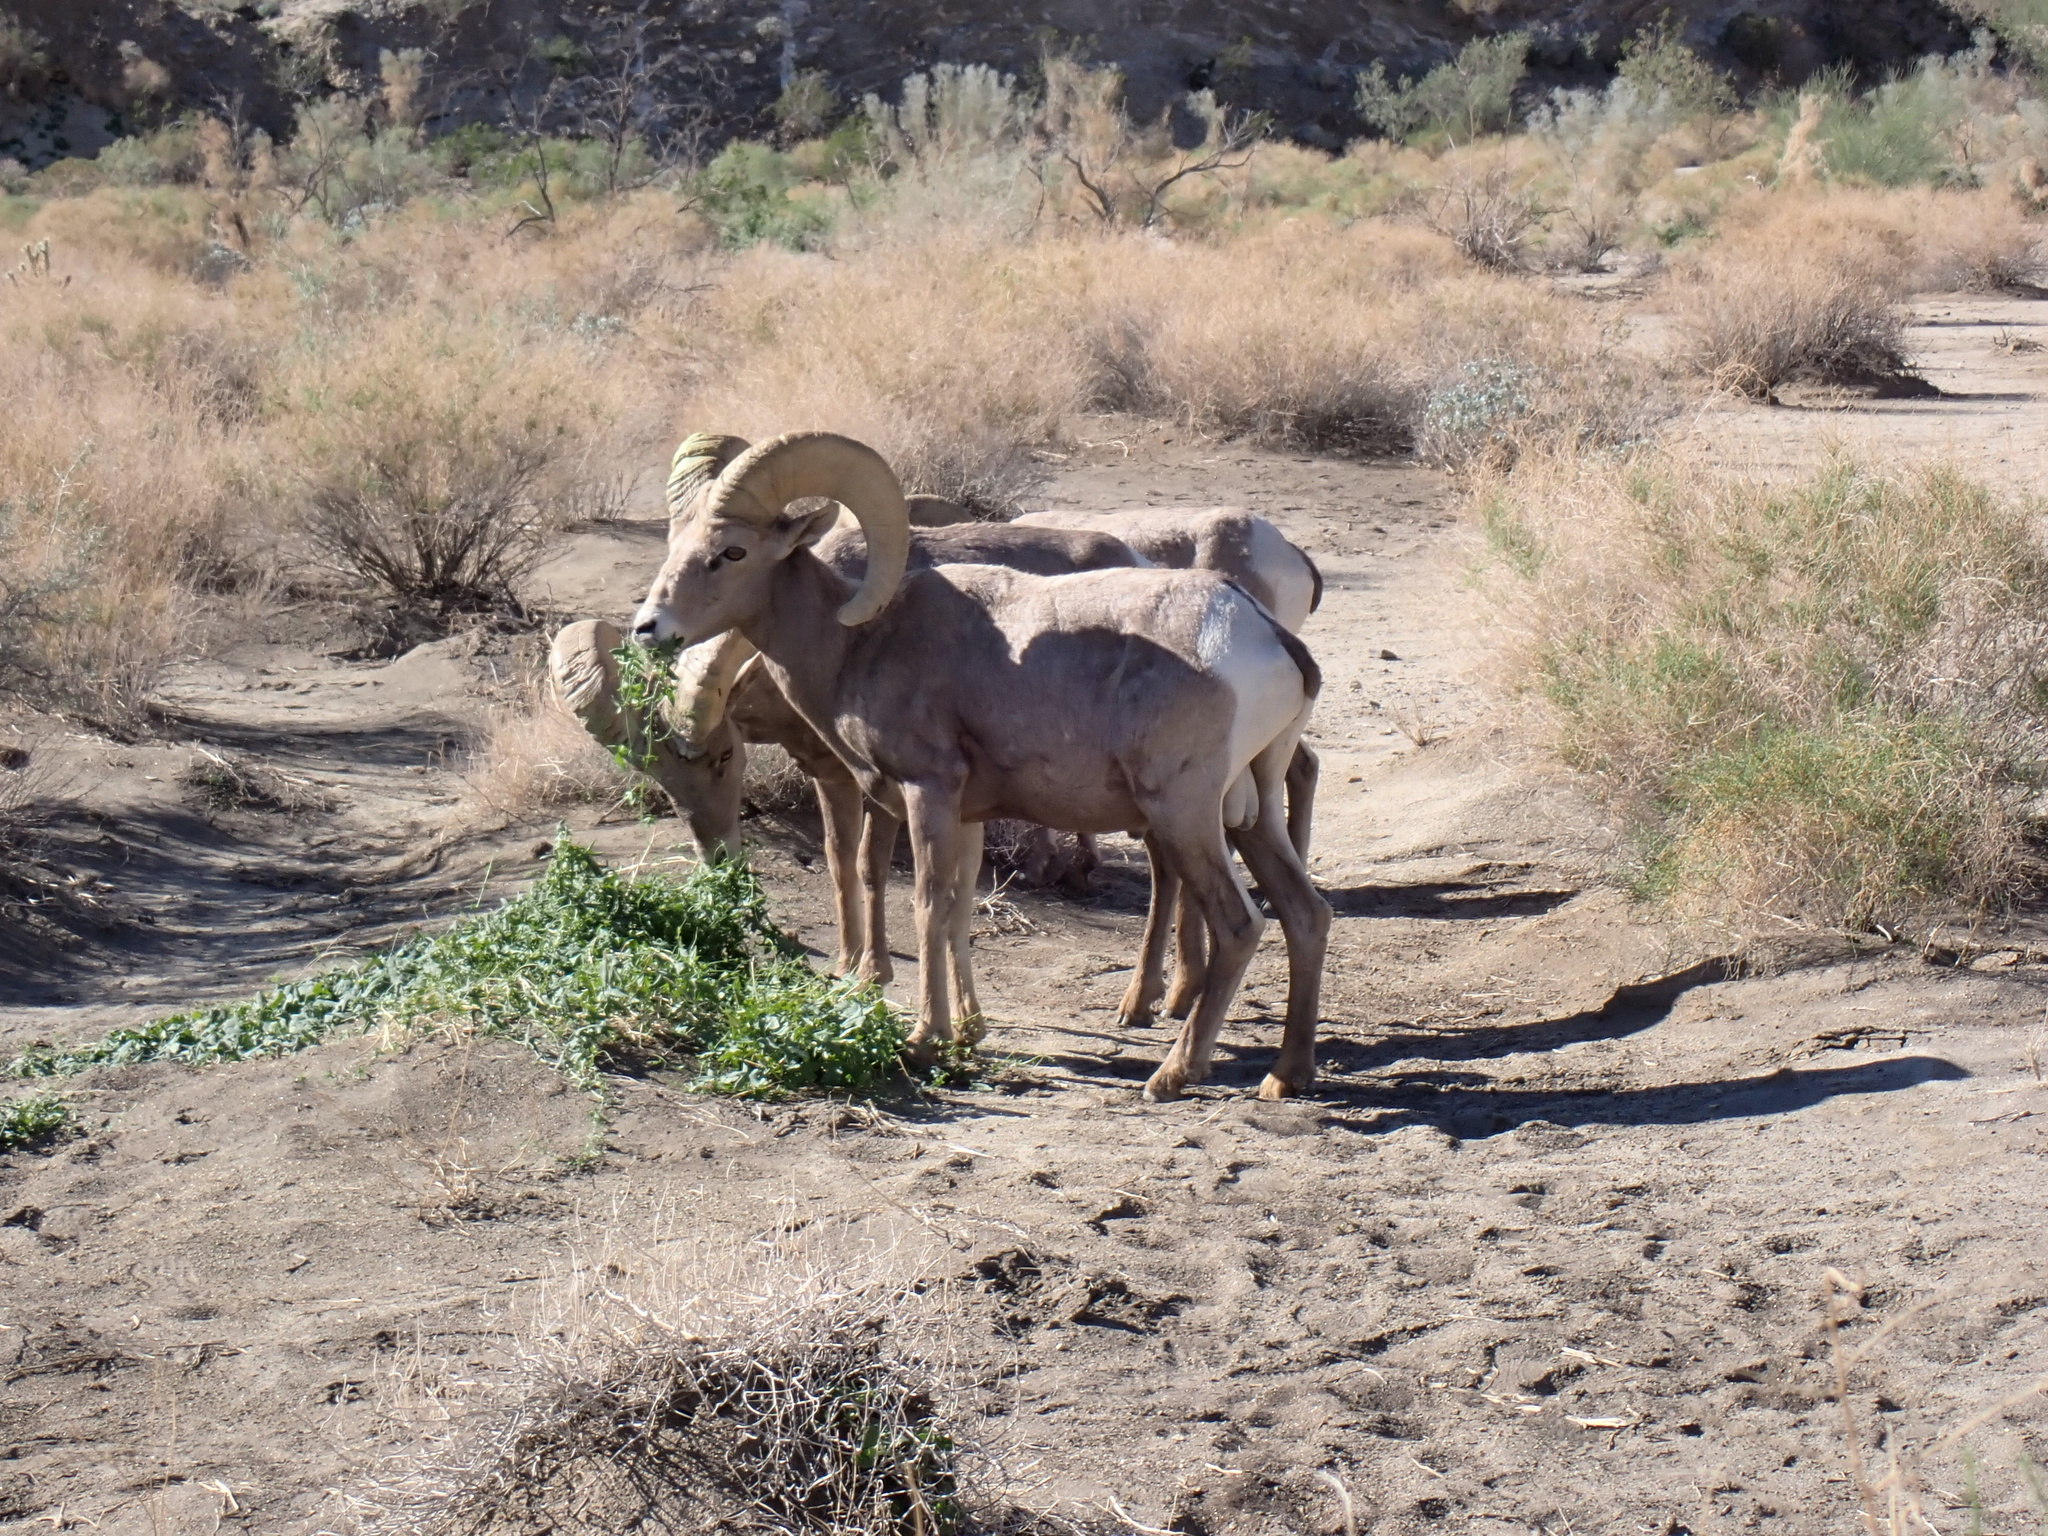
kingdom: Animalia
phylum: Chordata
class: Mammalia
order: Artiodactyla
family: Bovidae
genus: Ovis
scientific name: Ovis canadensis
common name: Bighorn sheep
